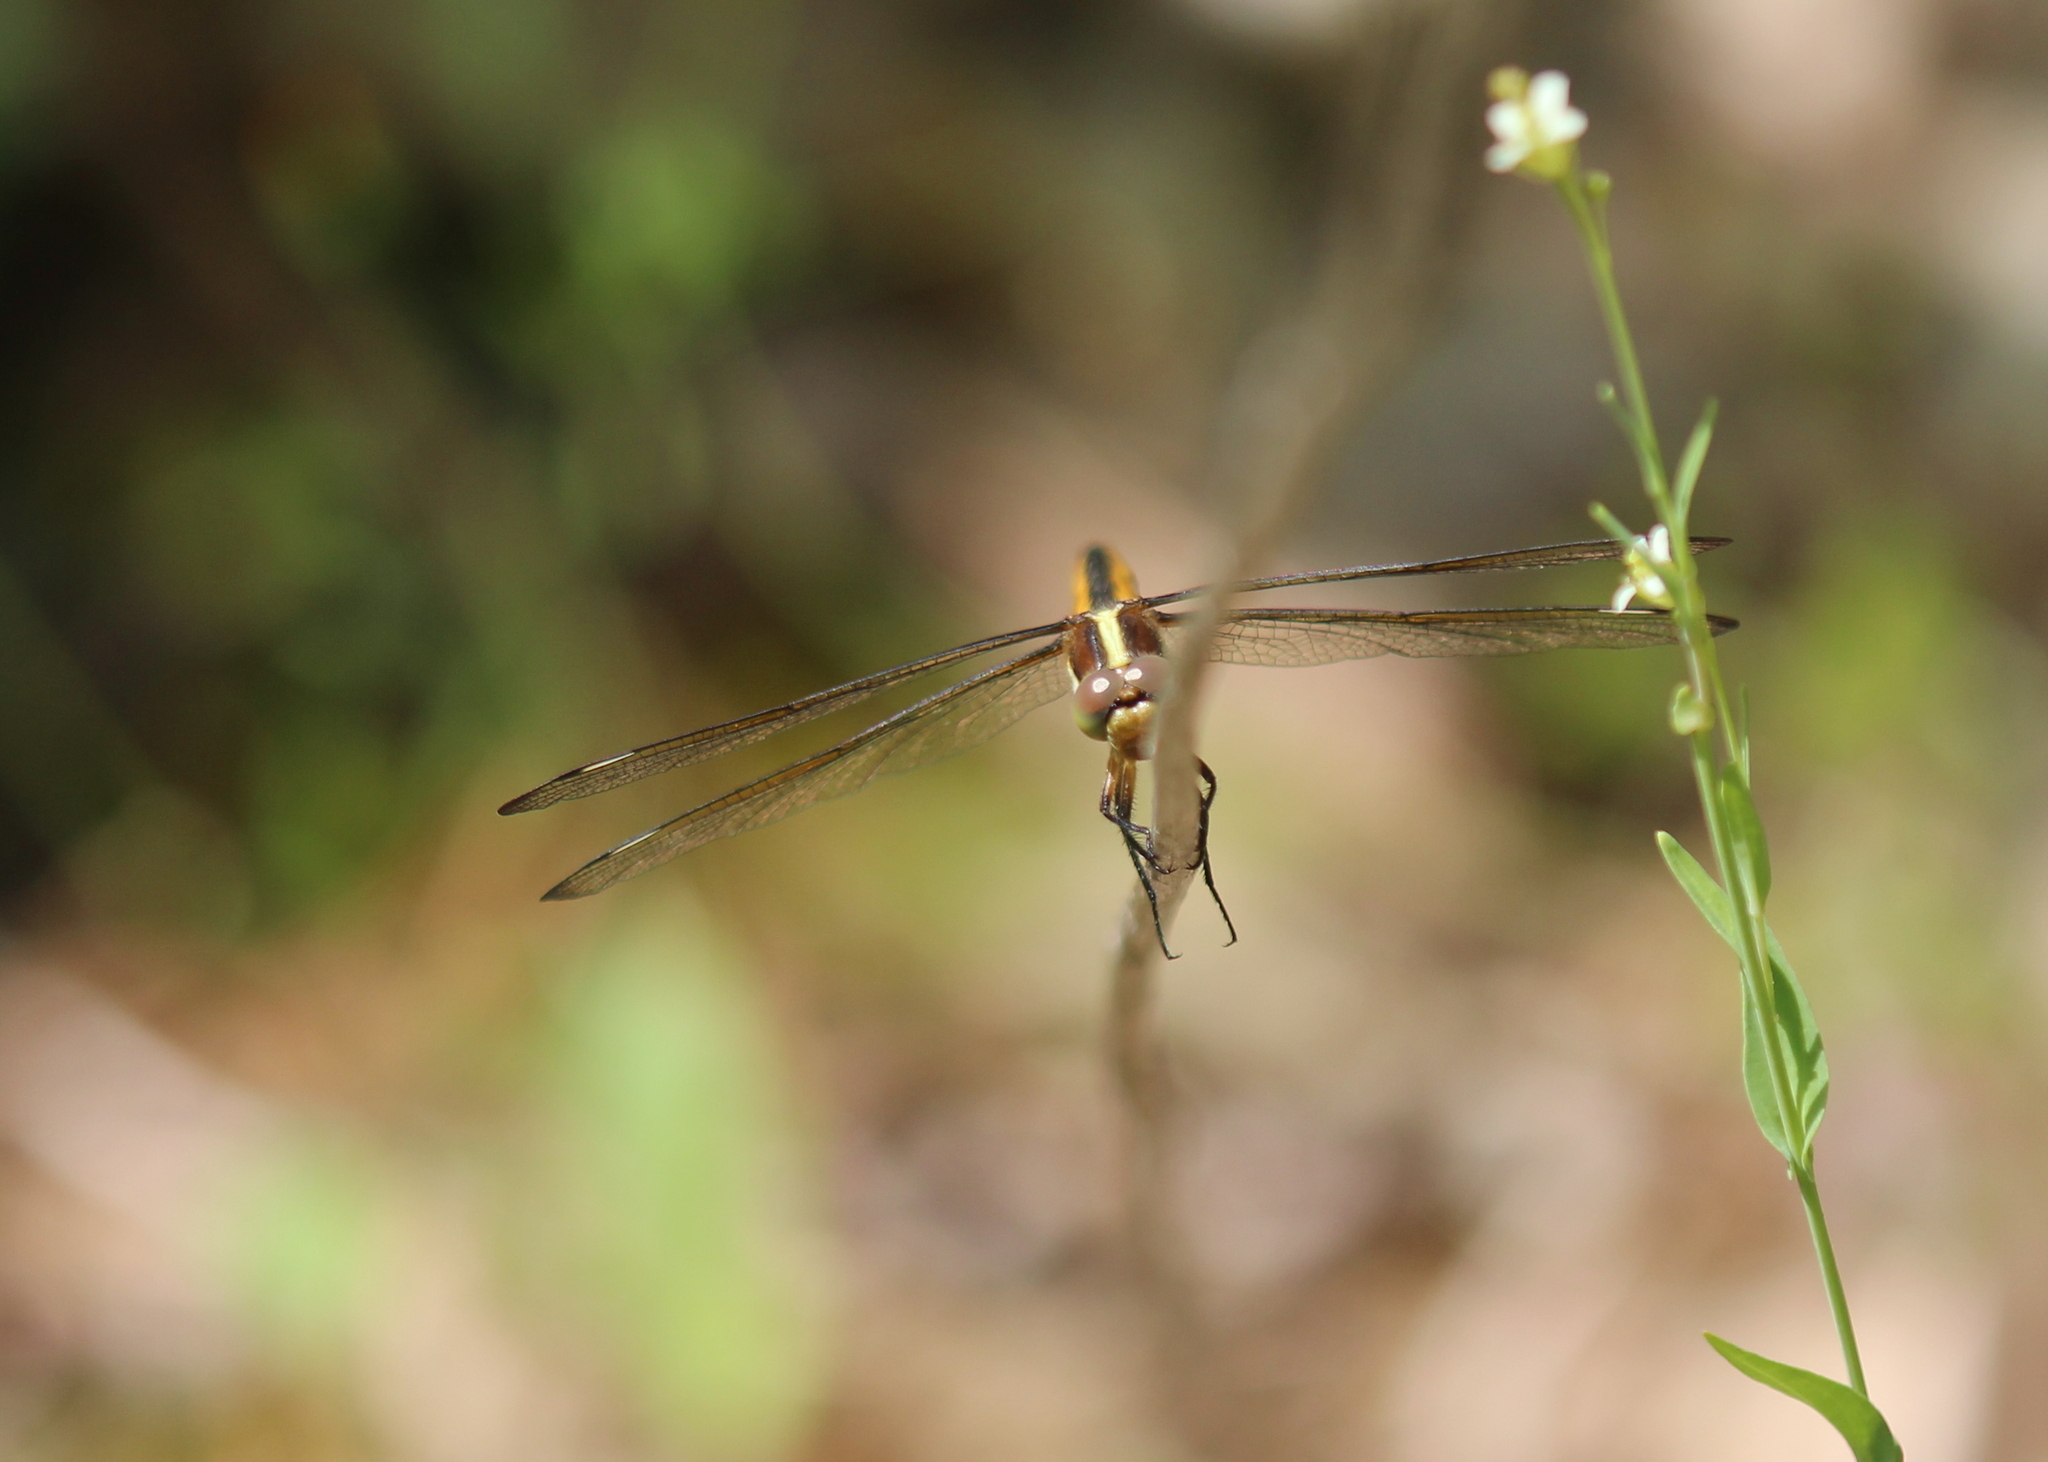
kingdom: Animalia
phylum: Arthropoda
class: Insecta
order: Odonata
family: Libellulidae
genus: Libellula
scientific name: Libellula cyanea
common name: Spangled skimmer
